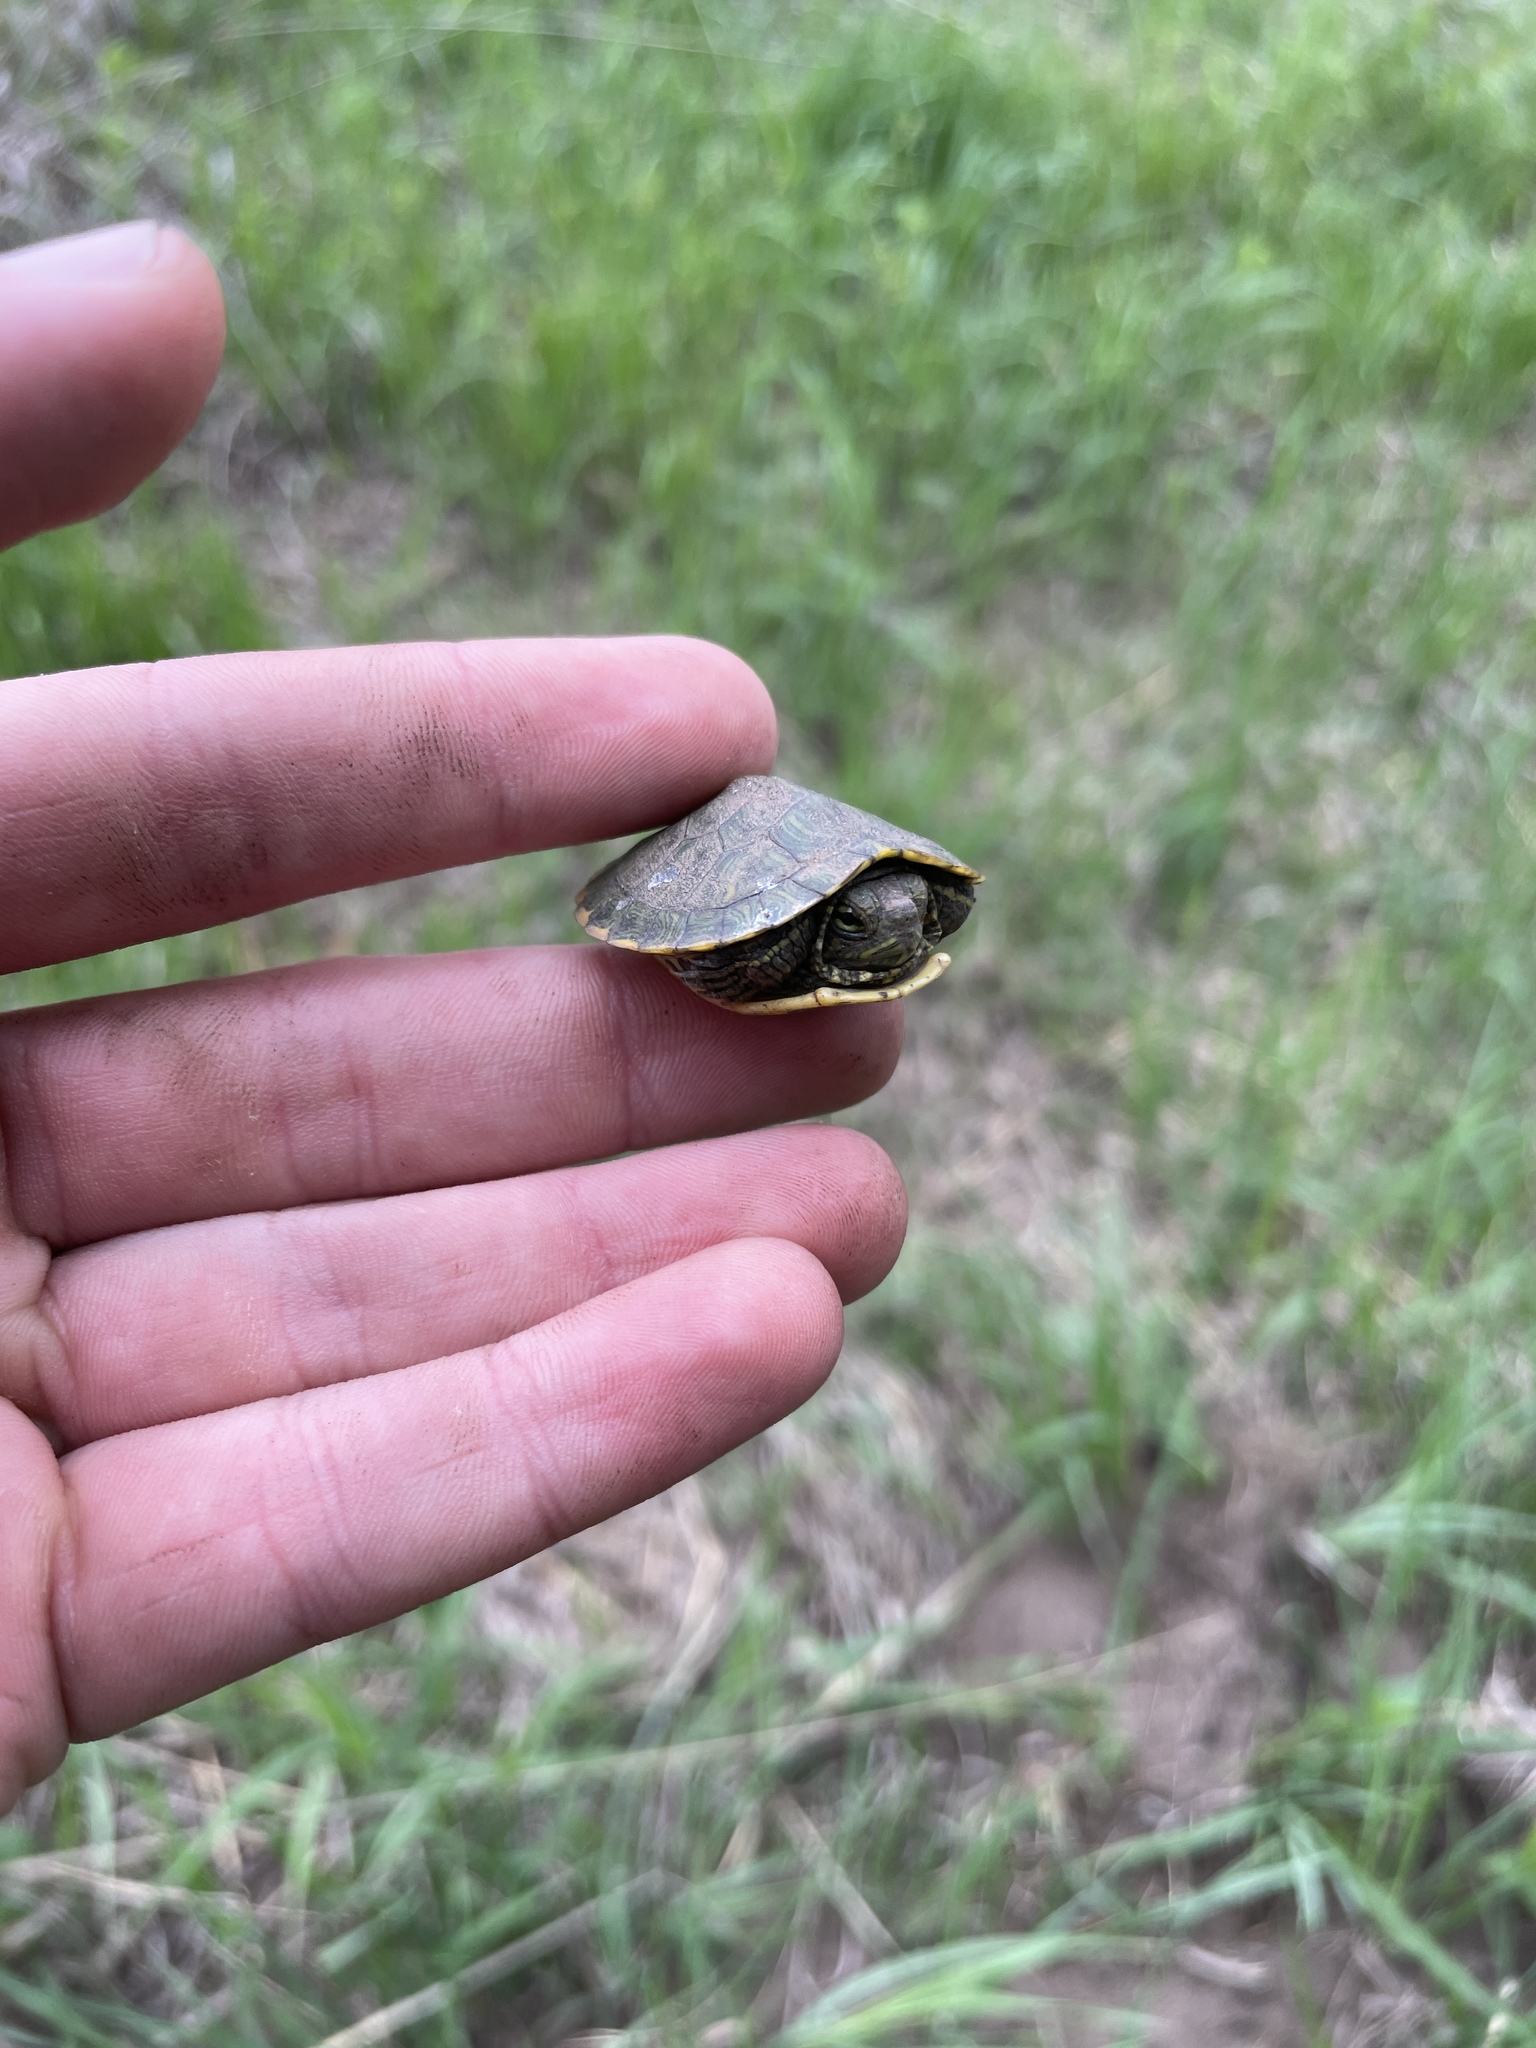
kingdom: Animalia
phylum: Chordata
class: Testudines
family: Emydidae
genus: Trachemys
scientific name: Trachemys scripta
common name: Slider
